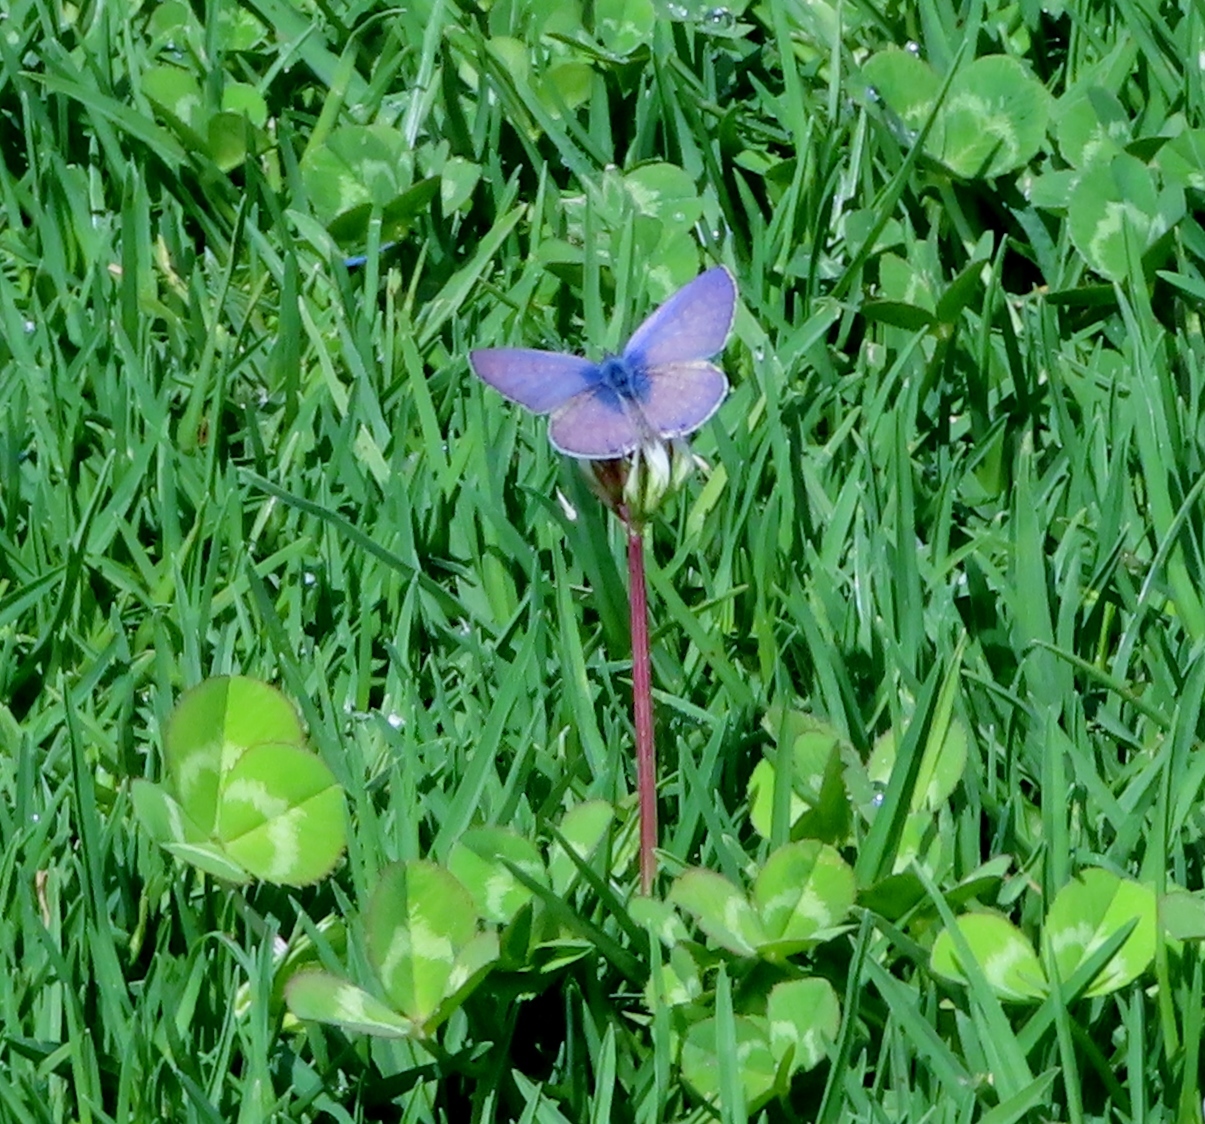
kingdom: Animalia
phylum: Arthropoda
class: Insecta
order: Lepidoptera
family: Lycaenidae
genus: Leptotes
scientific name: Leptotes
